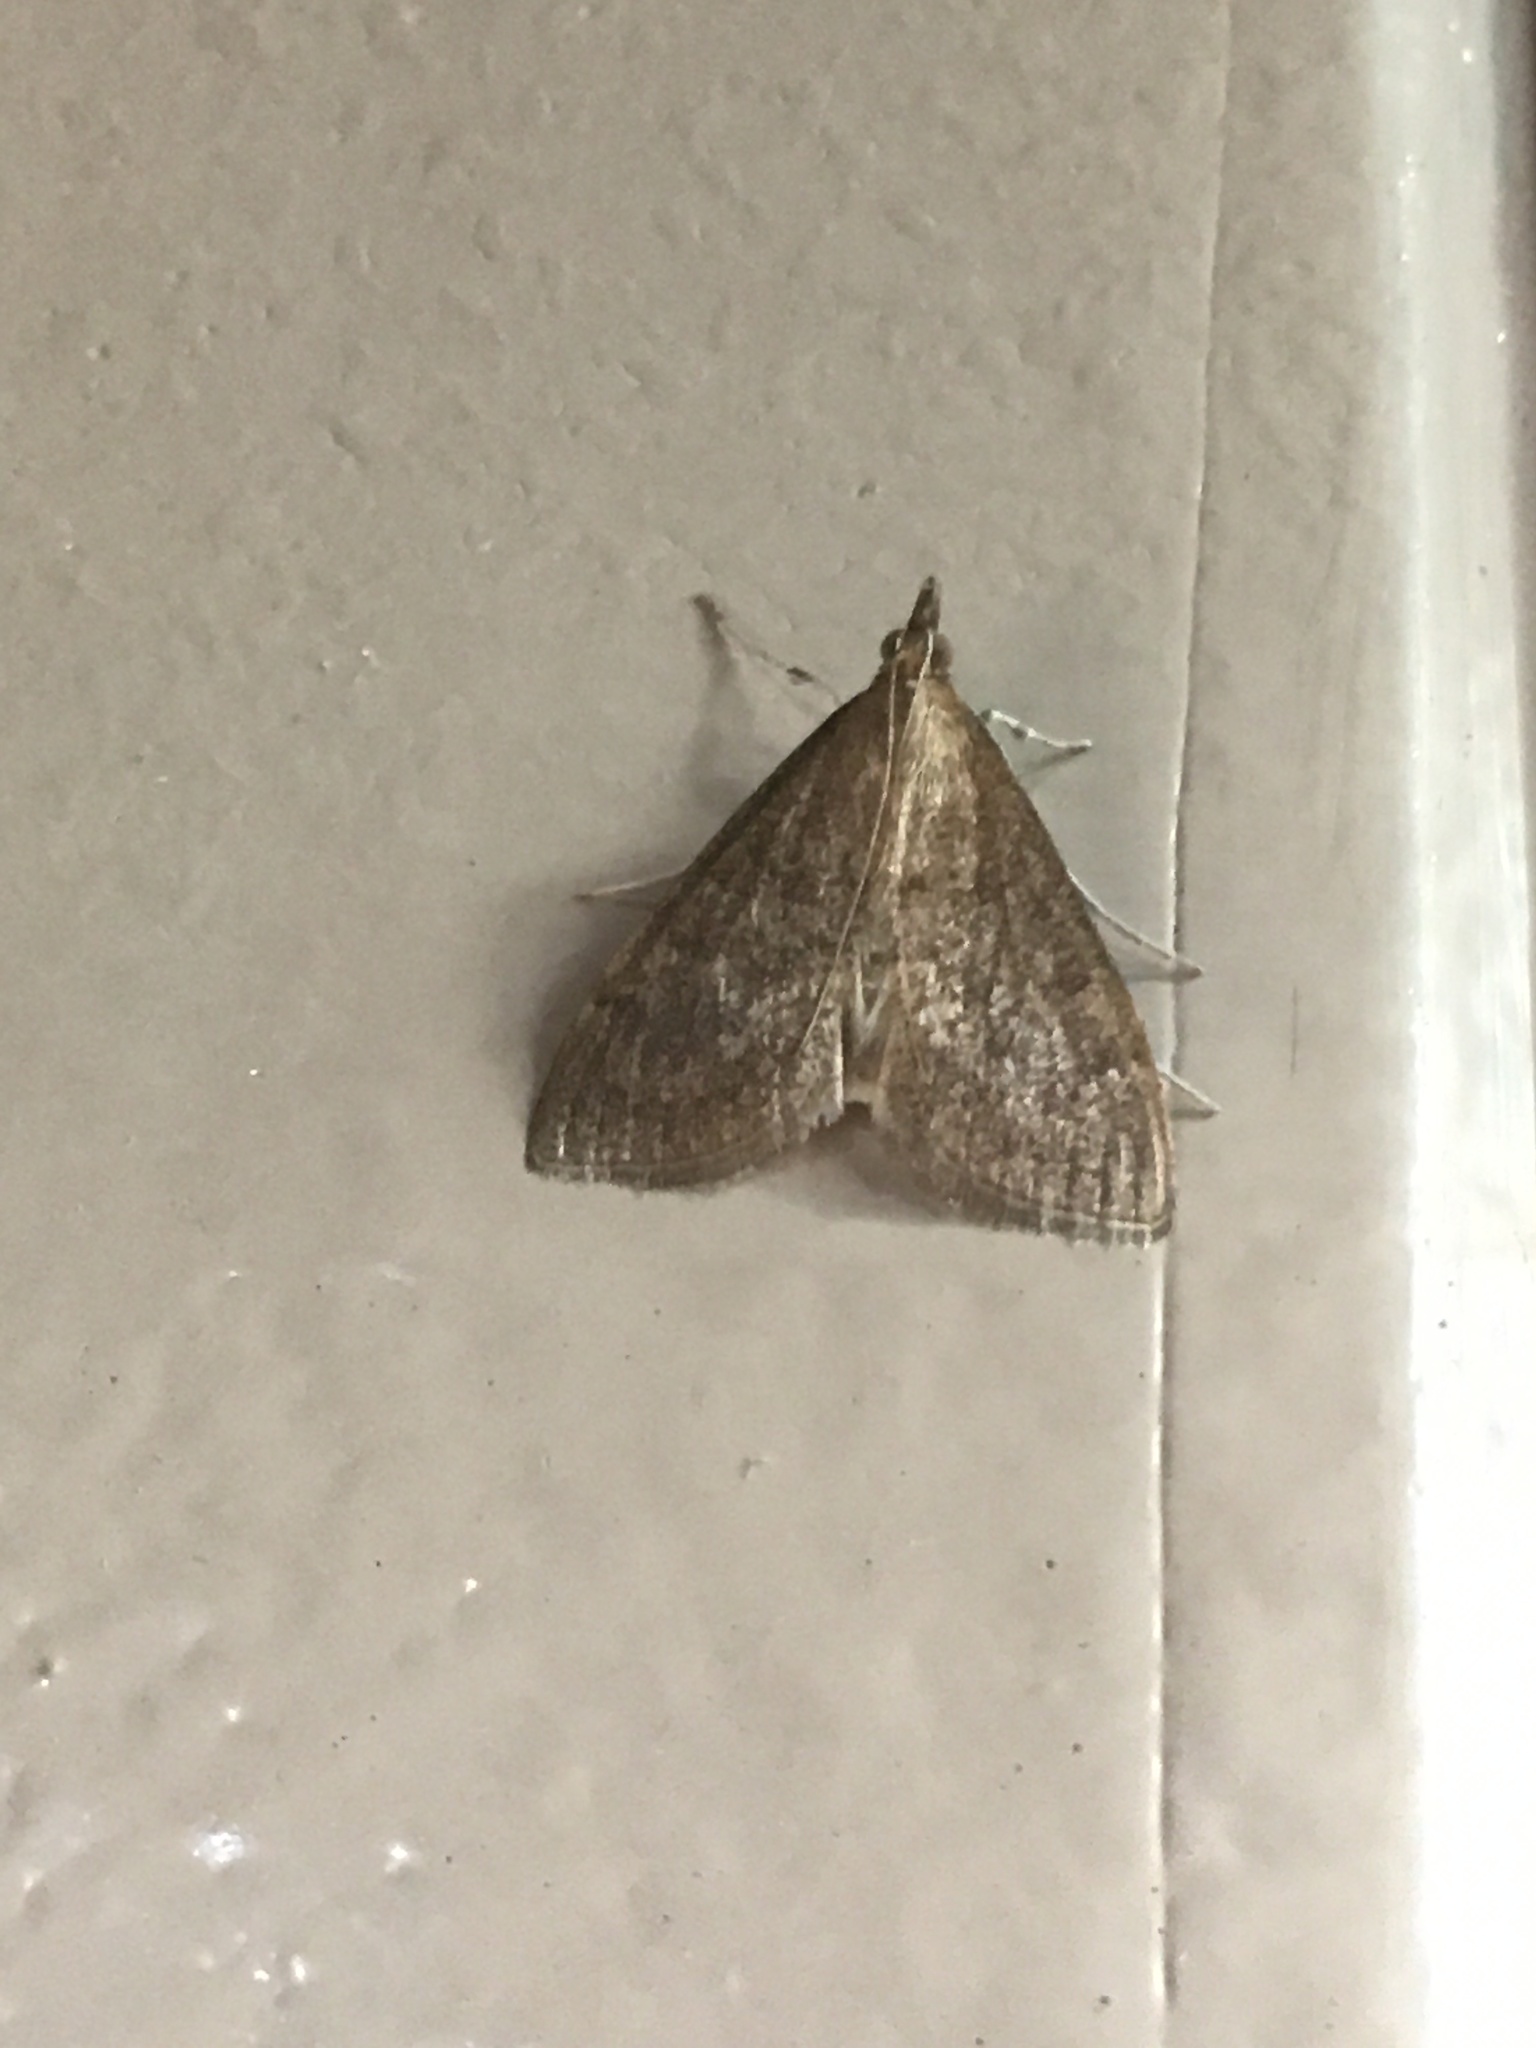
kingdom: Animalia
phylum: Arthropoda
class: Insecta
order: Lepidoptera
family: Crambidae
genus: Saucrobotys
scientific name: Saucrobotys futilalis
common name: Dogbane saucrobotys moth
